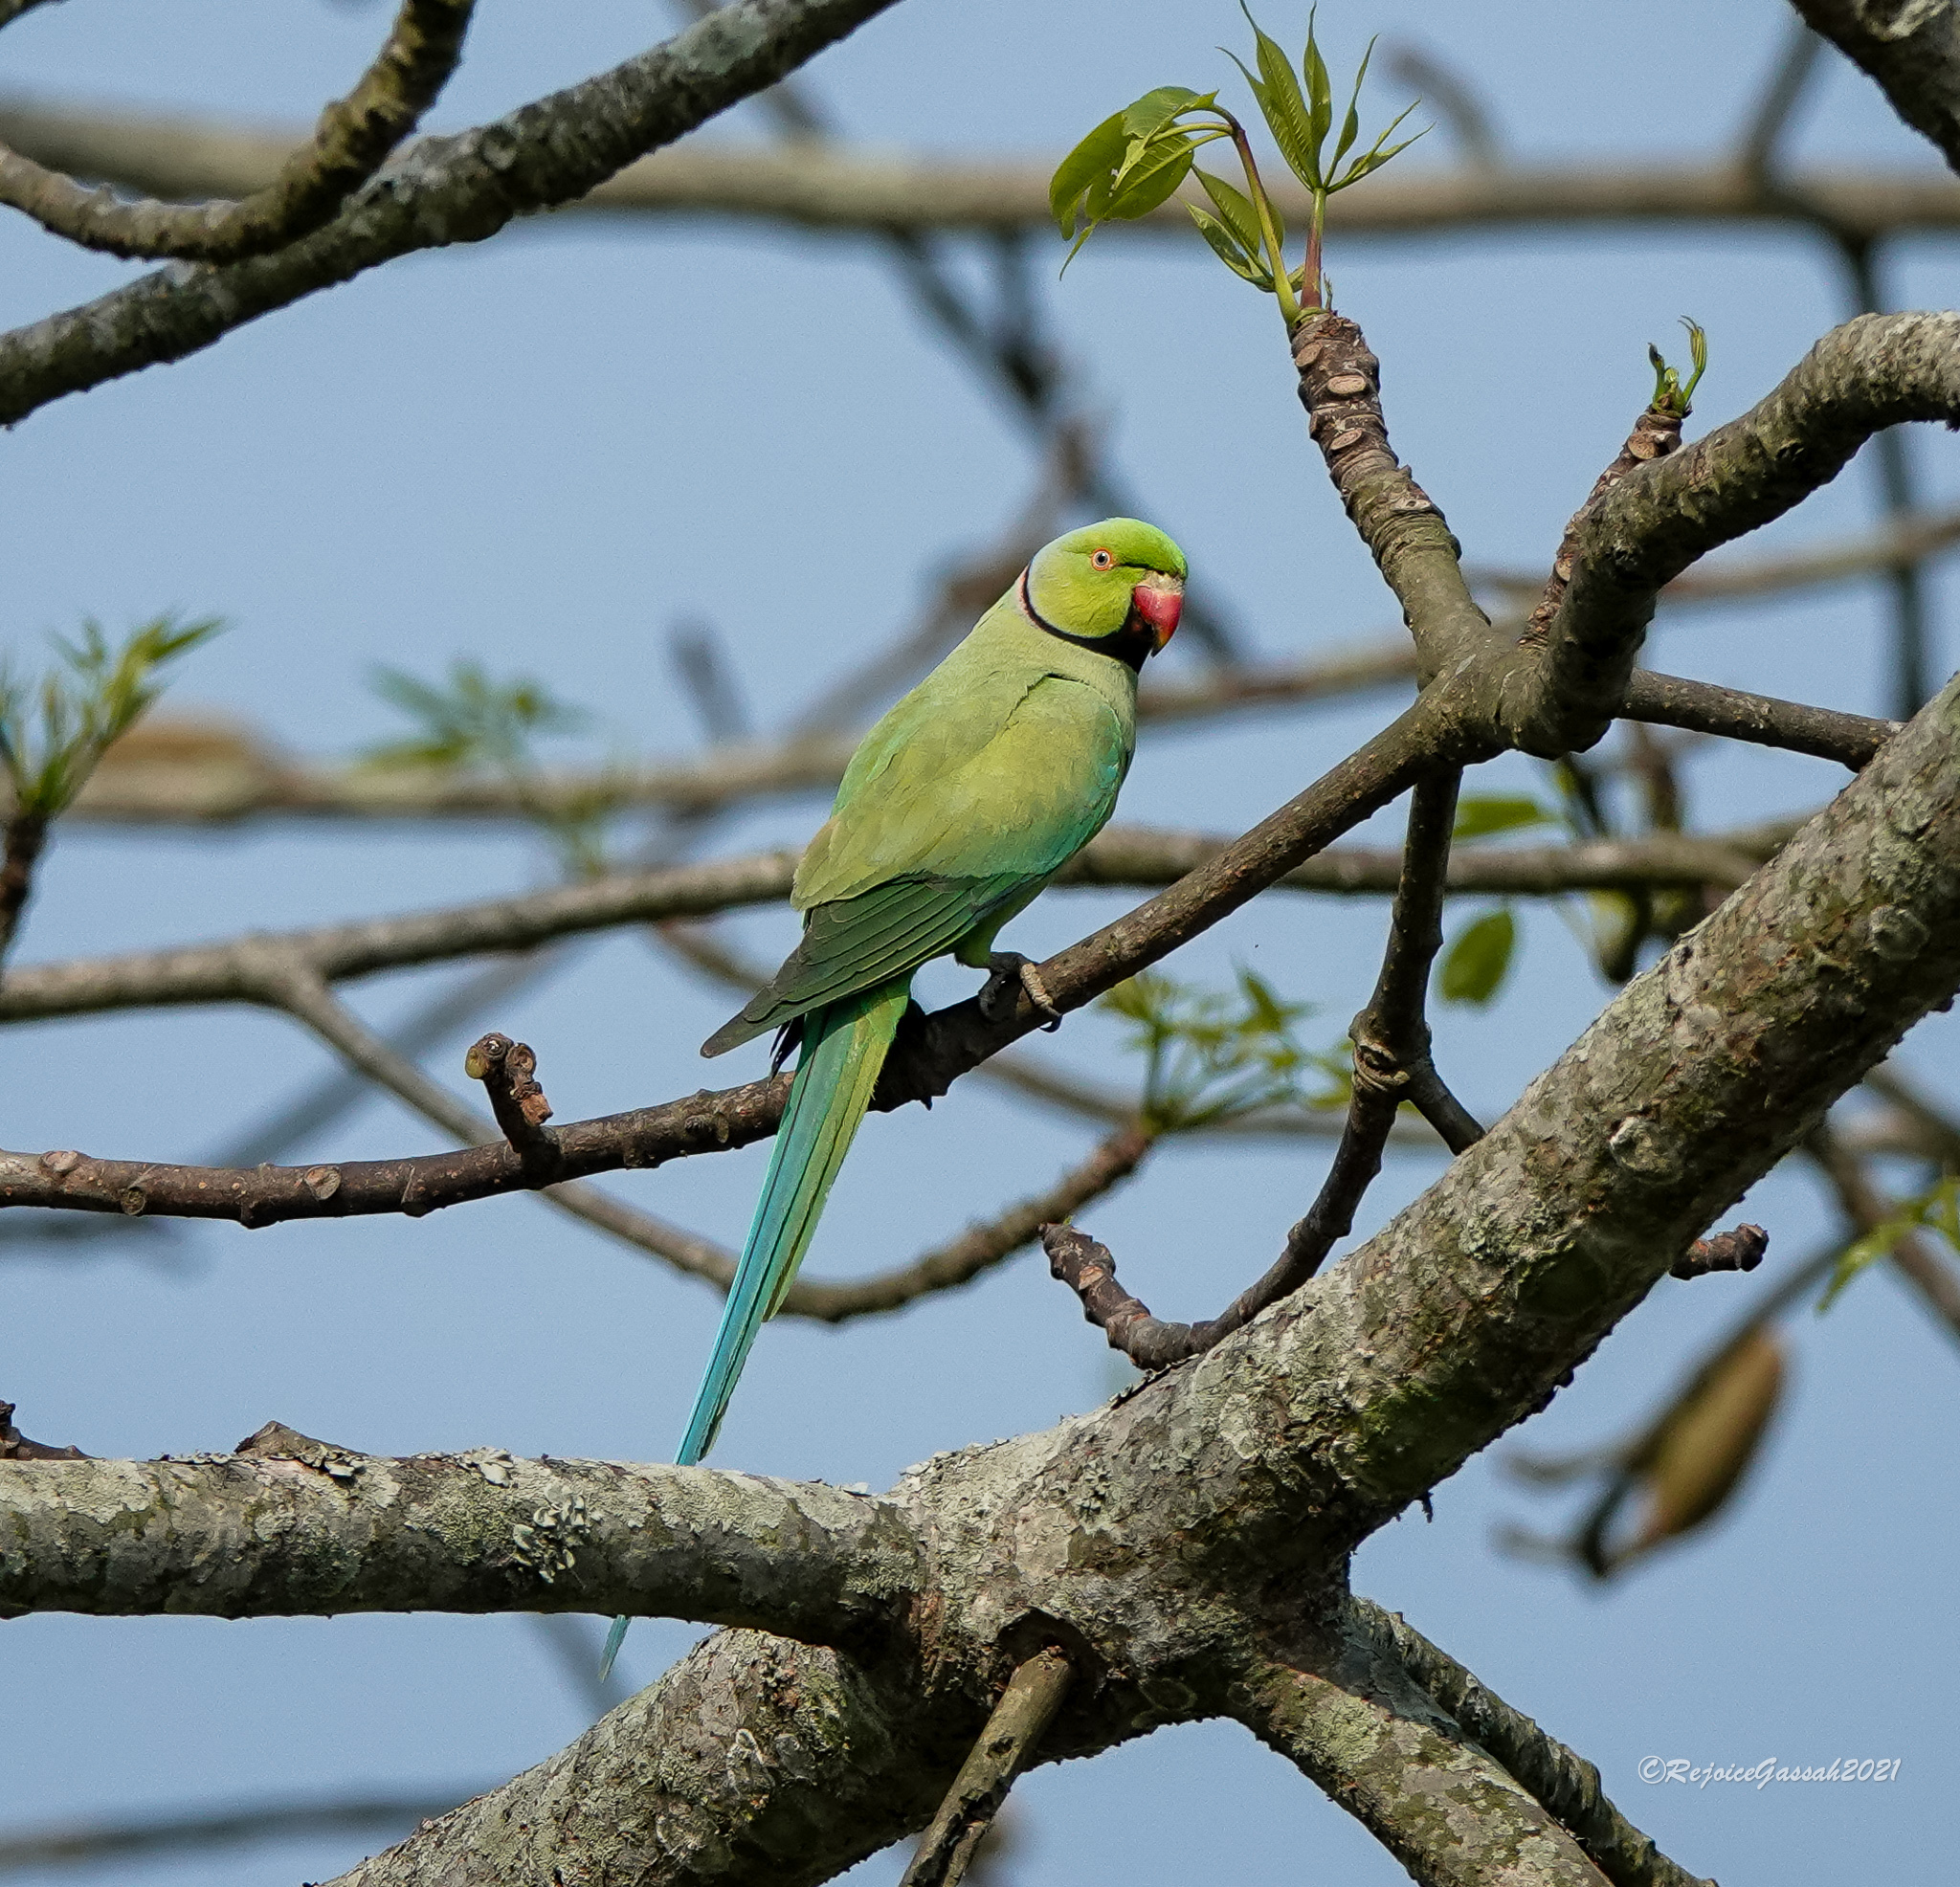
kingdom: Animalia
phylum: Chordata
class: Aves
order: Psittaciformes
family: Psittacidae
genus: Psittacula
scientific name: Psittacula krameri
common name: Rose-ringed parakeet
